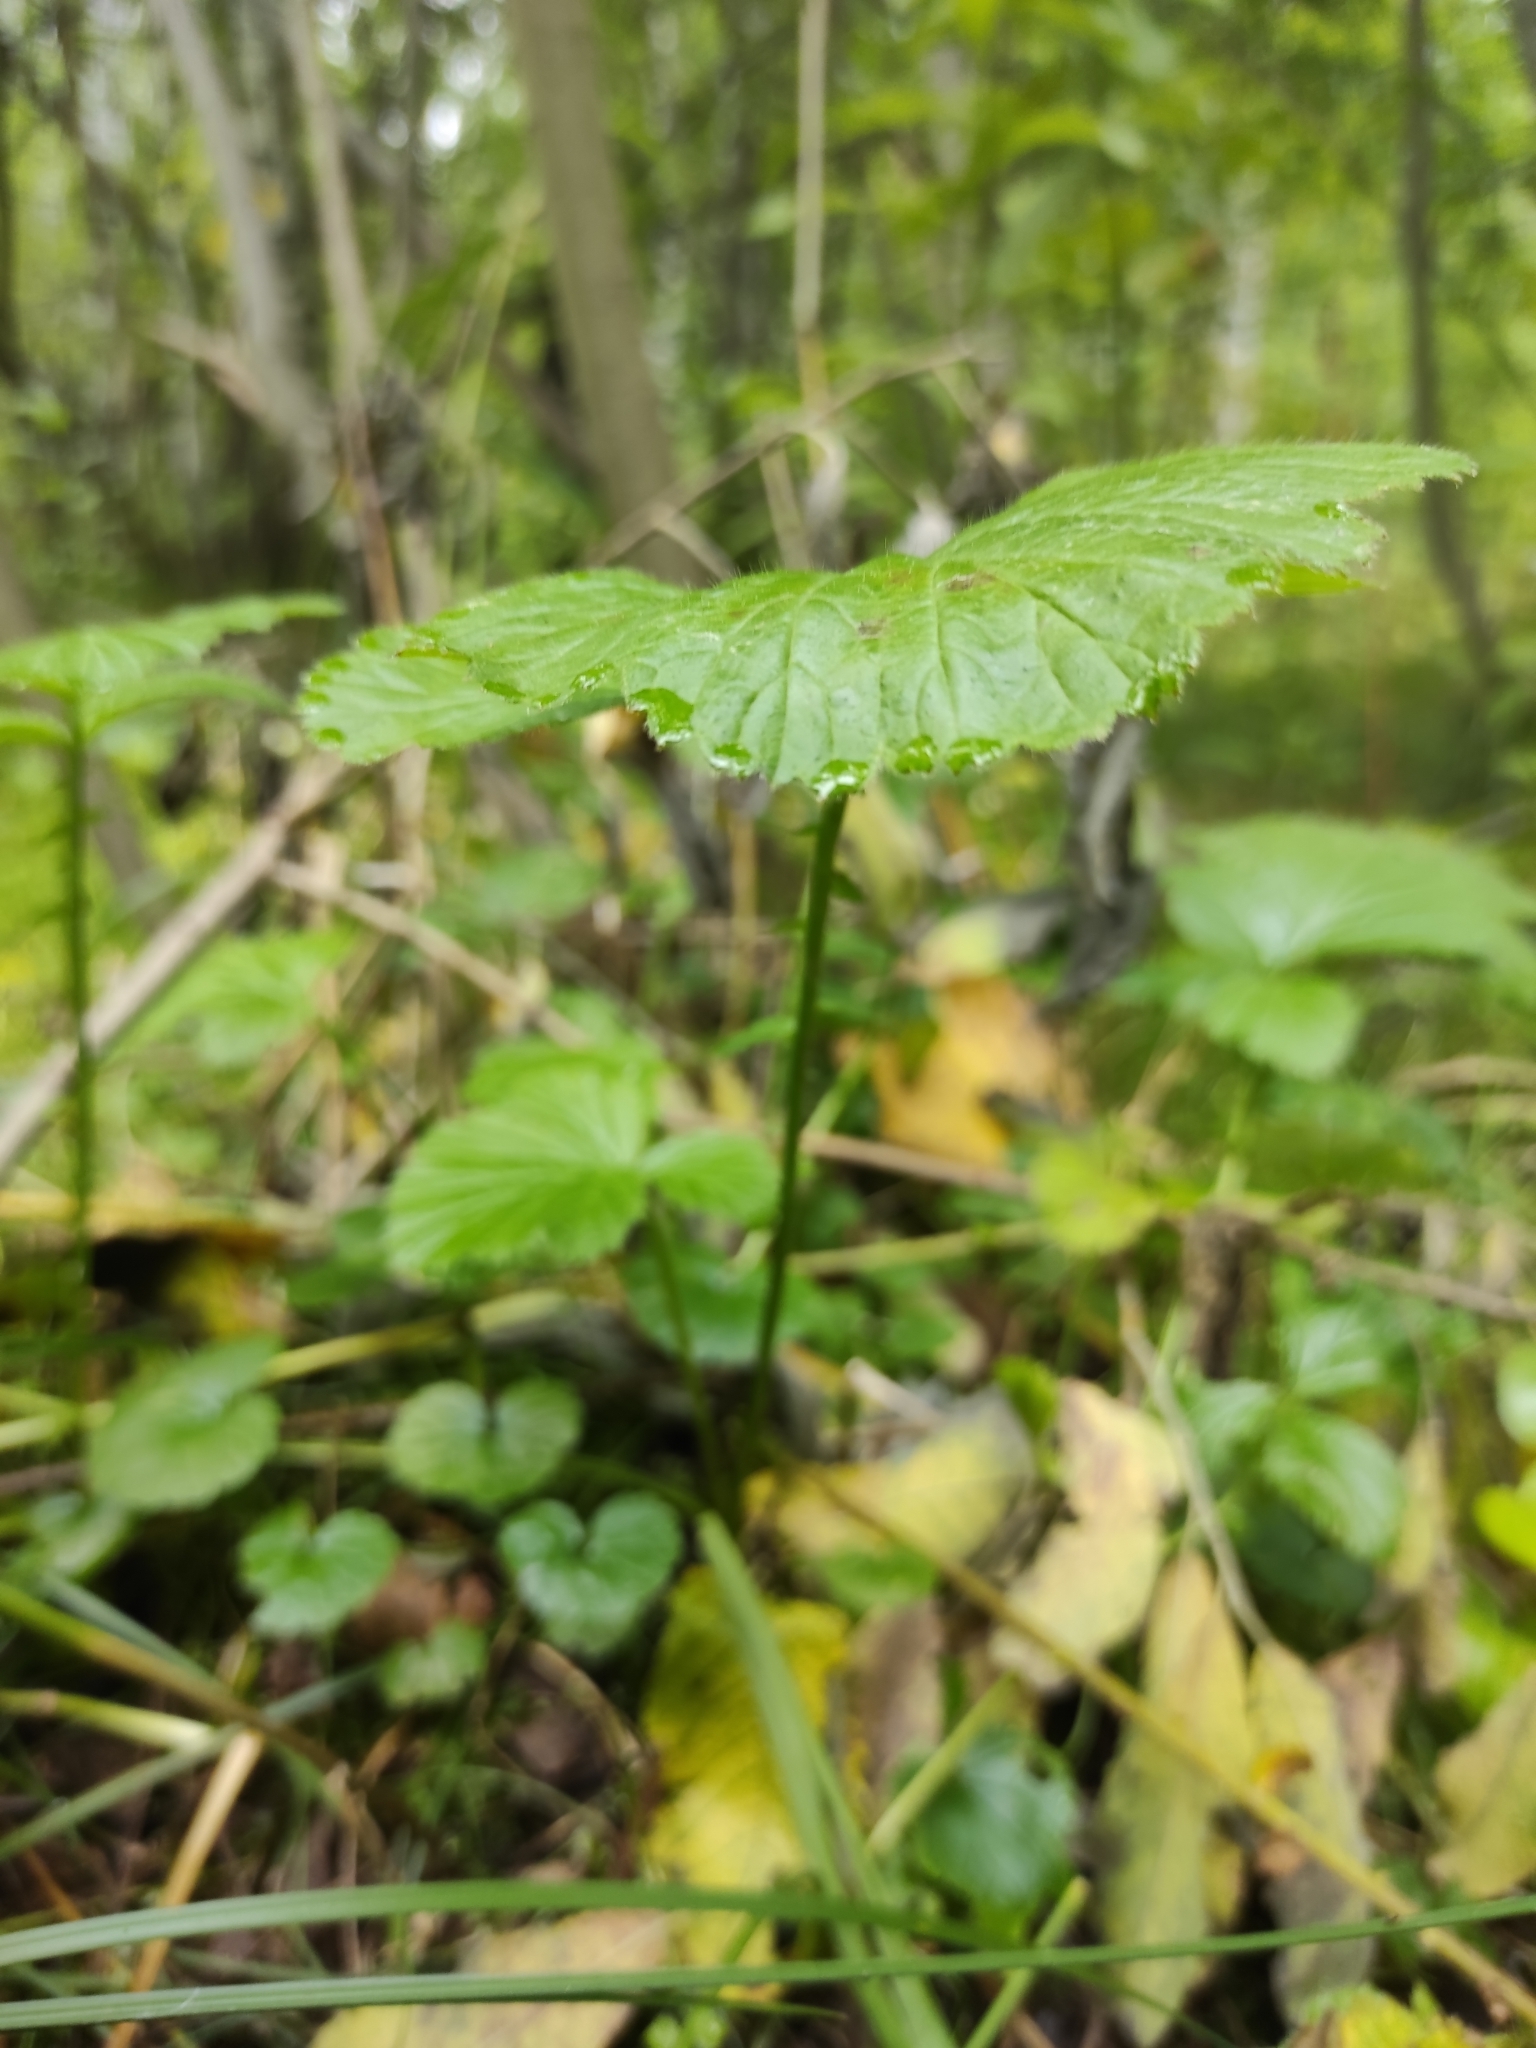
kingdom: Plantae
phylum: Tracheophyta
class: Magnoliopsida
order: Rosales
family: Rosaceae
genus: Geum
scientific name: Geum rivale
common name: Water avens
